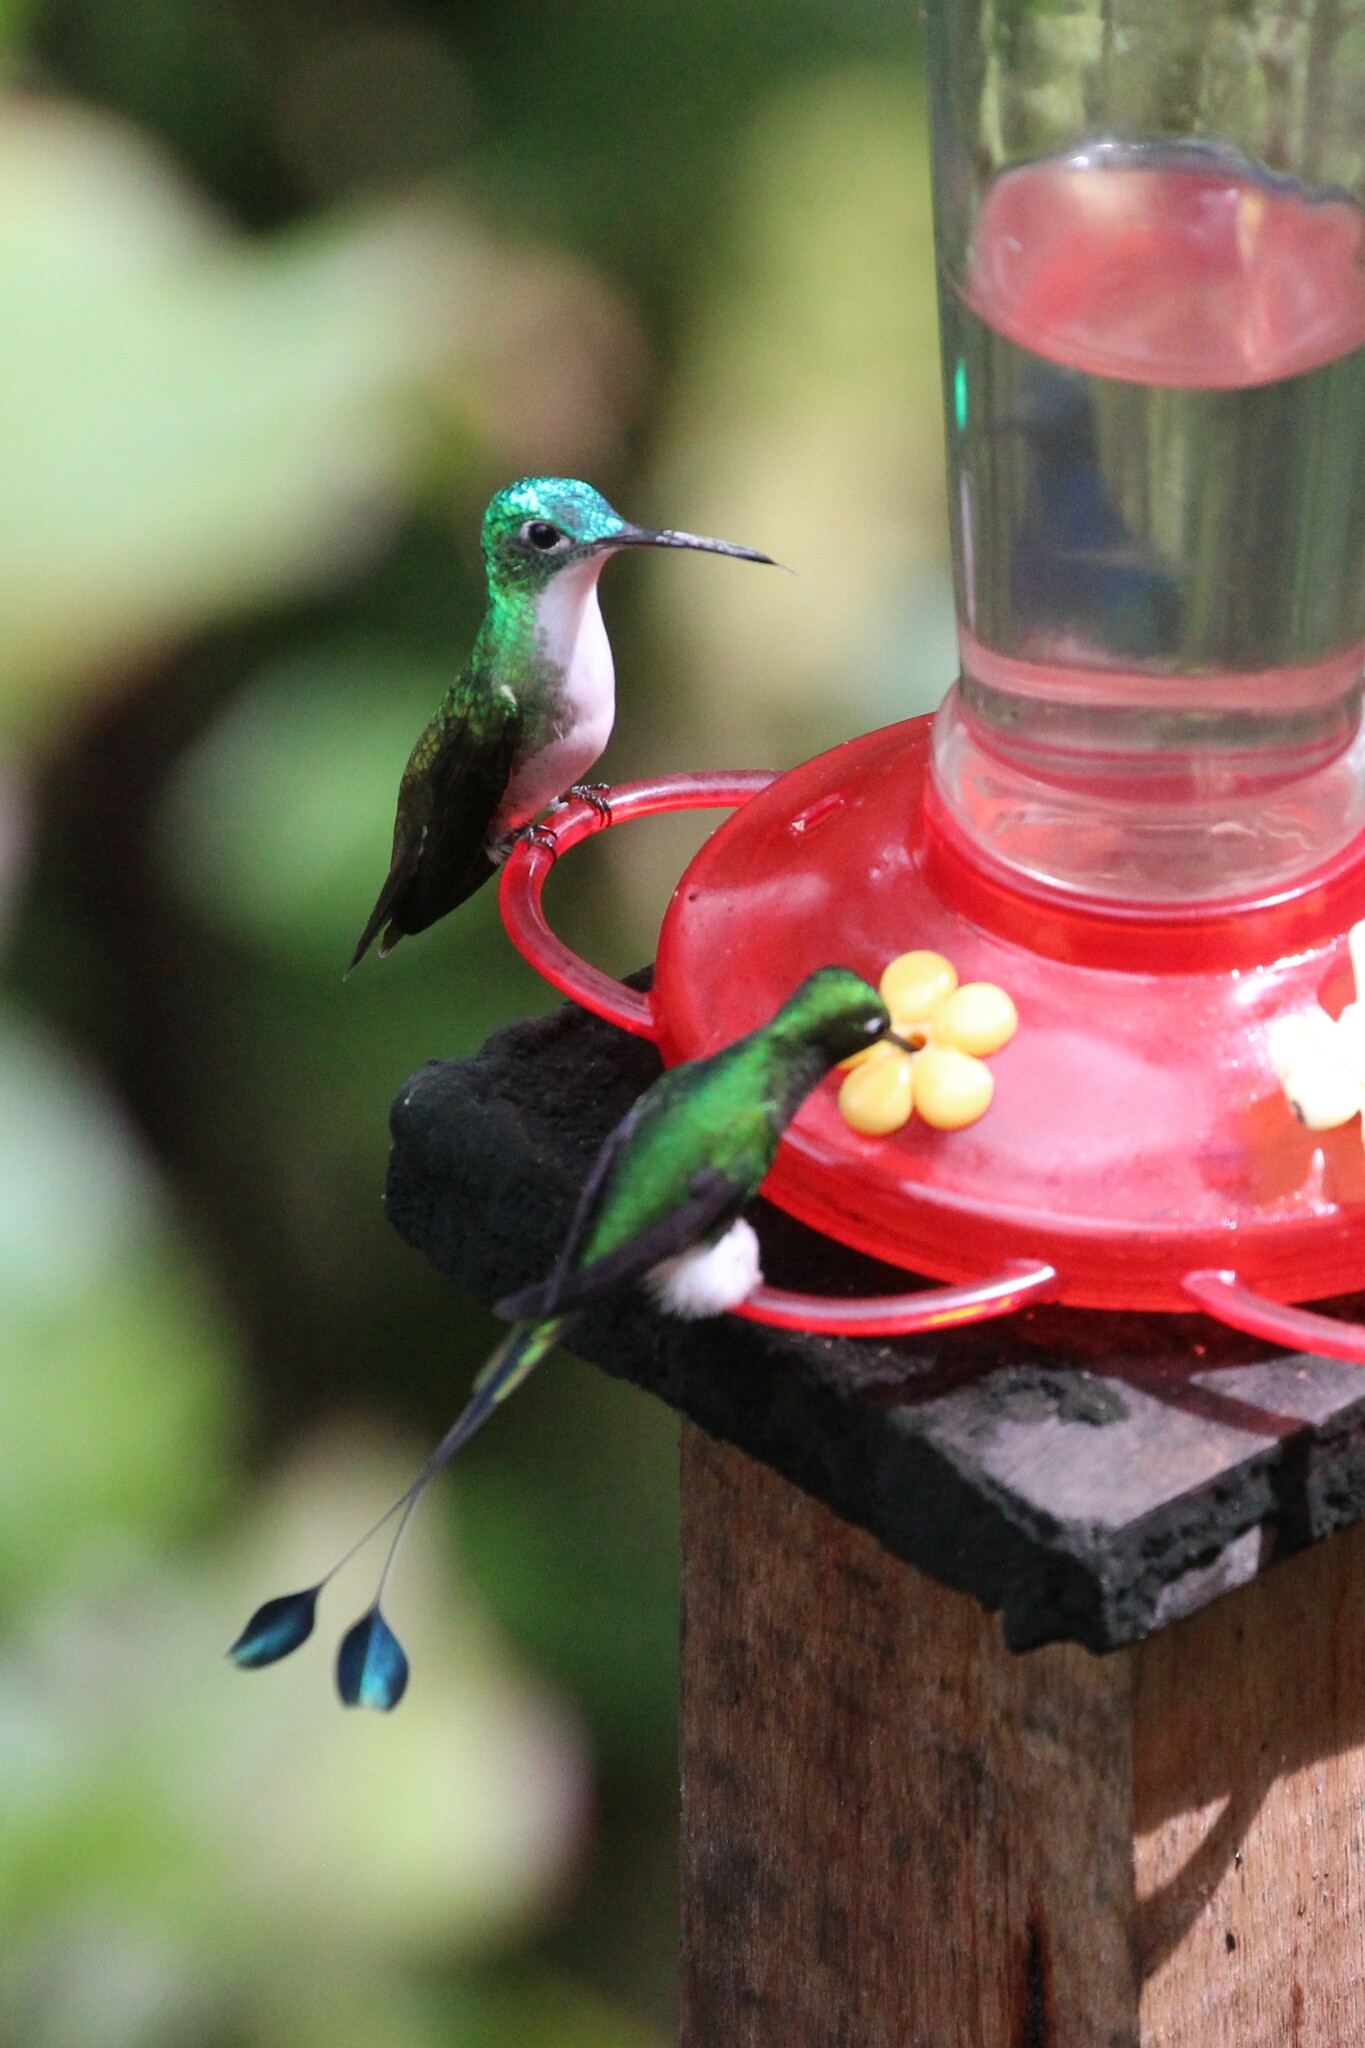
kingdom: Animalia
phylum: Chordata
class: Aves
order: Apodiformes
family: Trochilidae
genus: Ocreatus
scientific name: Ocreatus underwoodii
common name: Booted racket-tail
